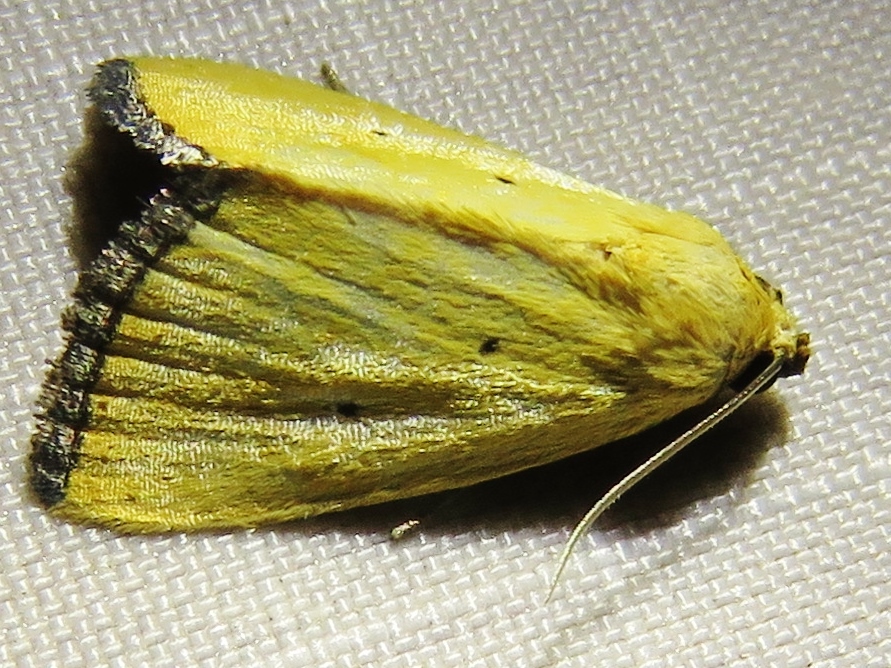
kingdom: Animalia
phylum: Arthropoda
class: Insecta
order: Lepidoptera
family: Noctuidae
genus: Marimatha
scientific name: Marimatha nigrofimbria
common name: Black-bordered lemon moth
